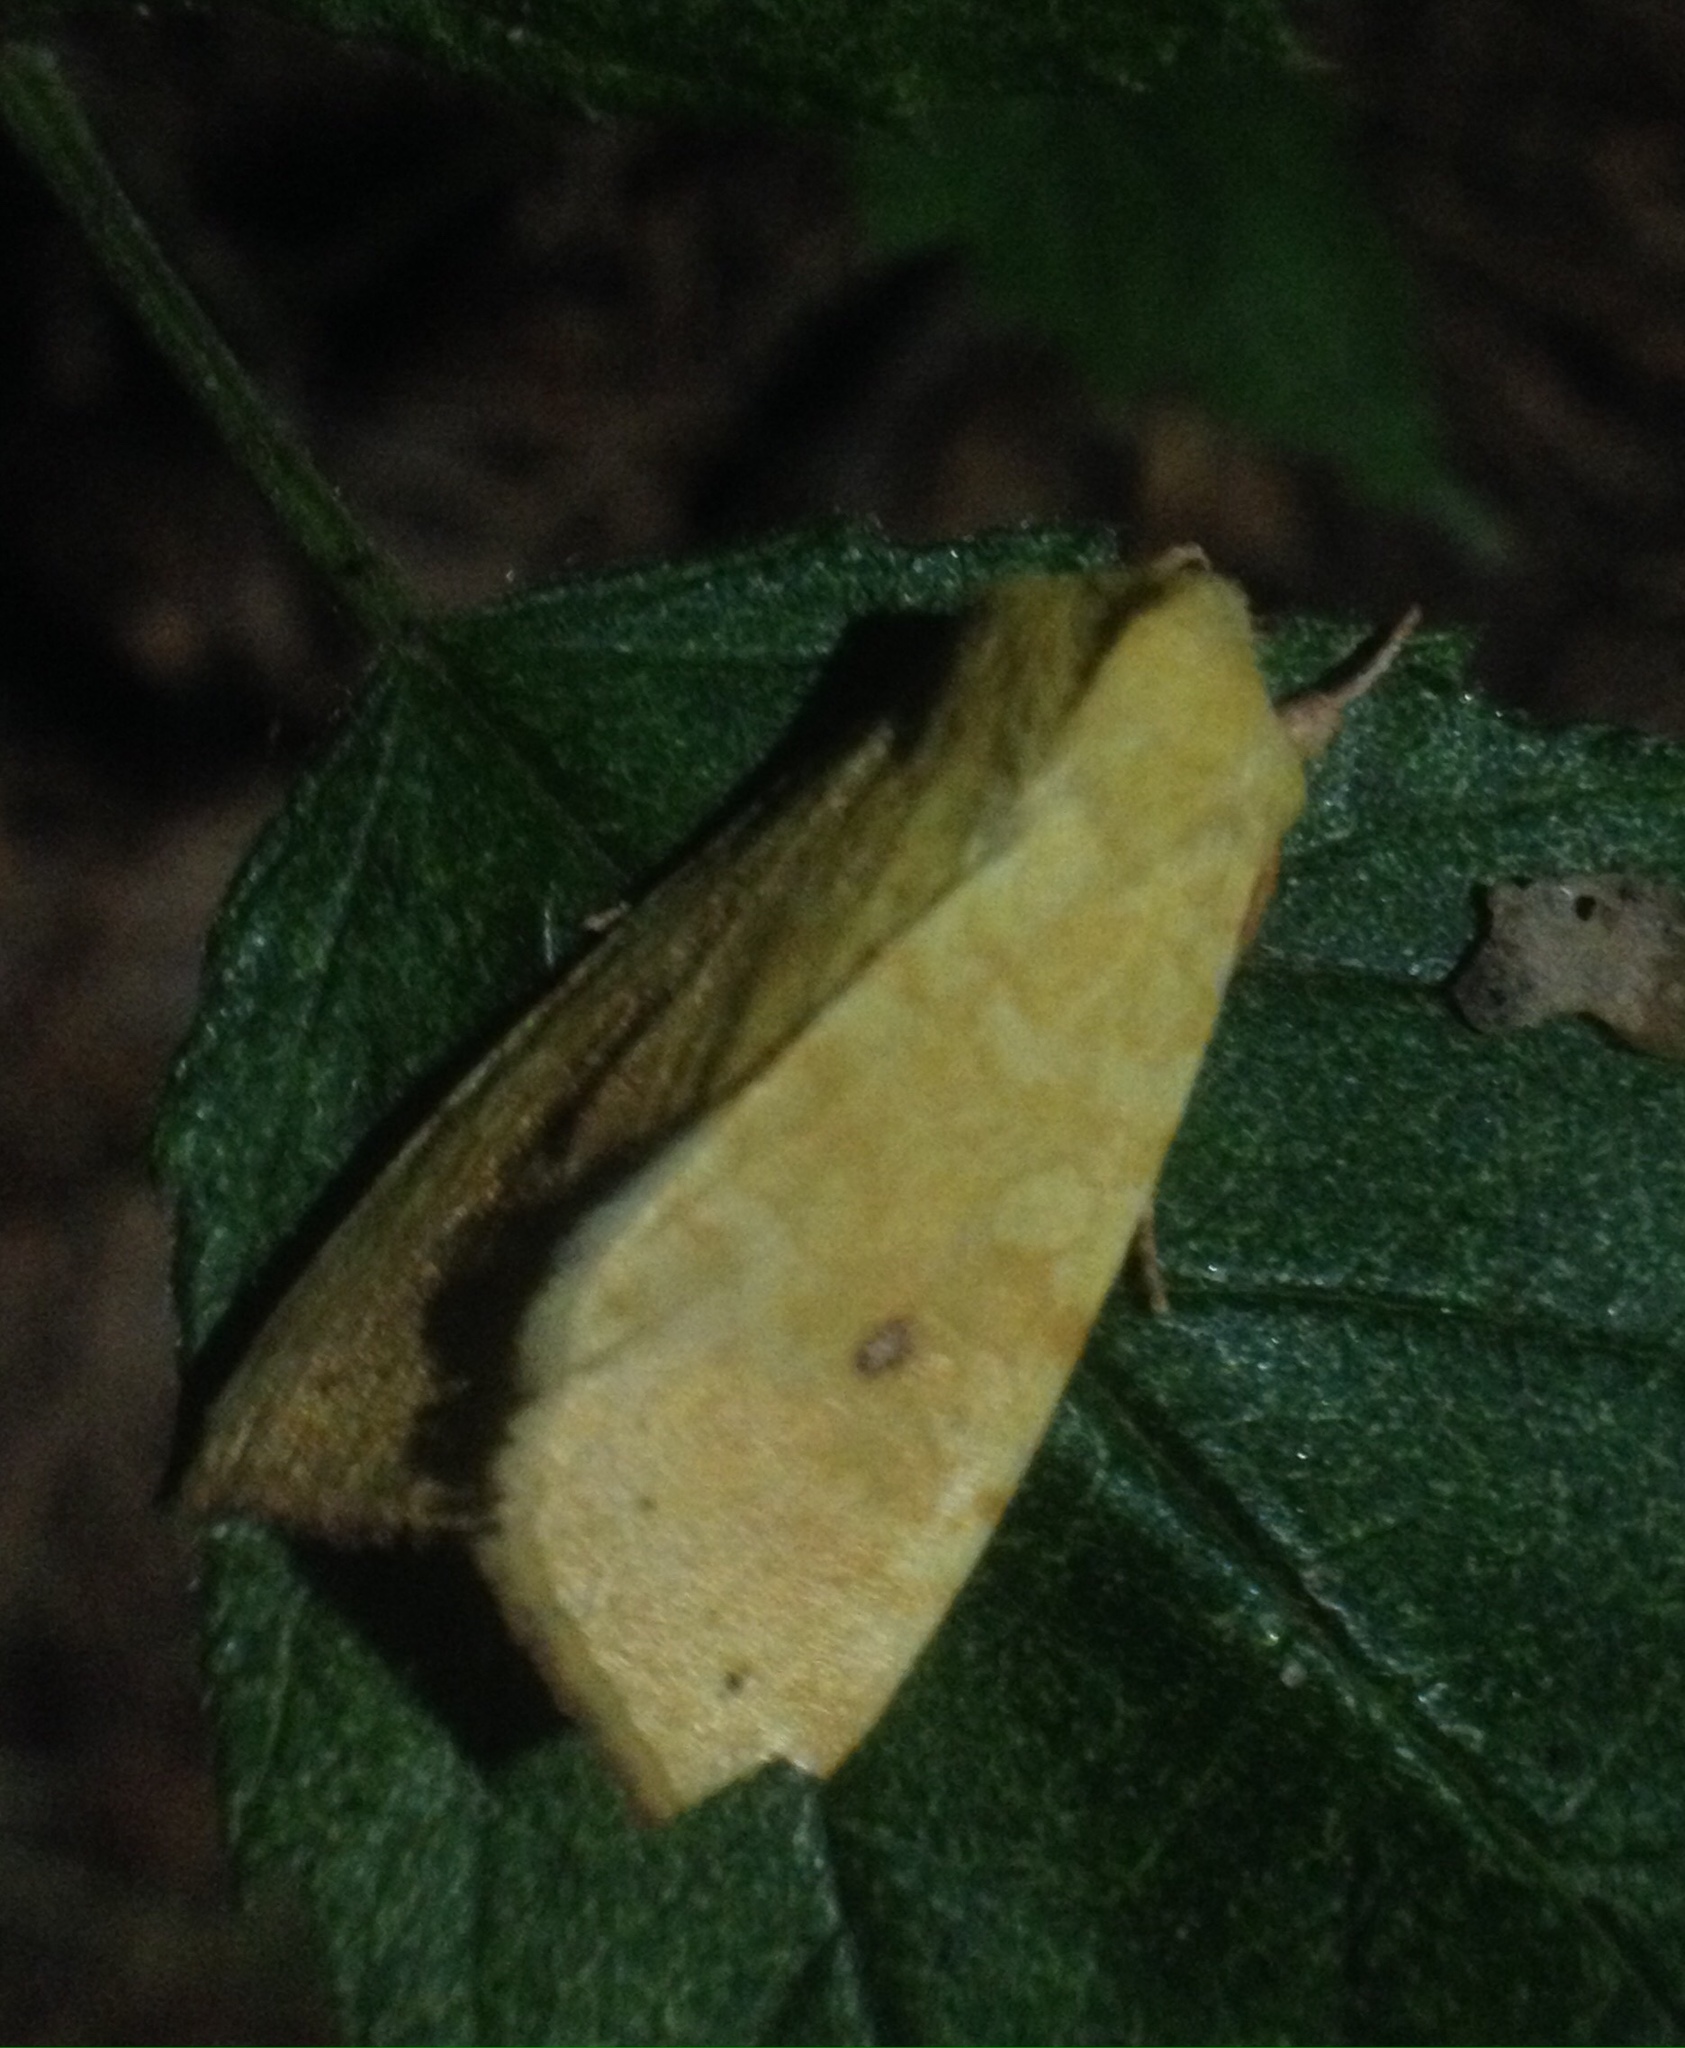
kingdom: Animalia
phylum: Arthropoda
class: Insecta
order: Lepidoptera
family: Noctuidae
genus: Xanthia
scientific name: Xanthia icteritia
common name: The sallow
